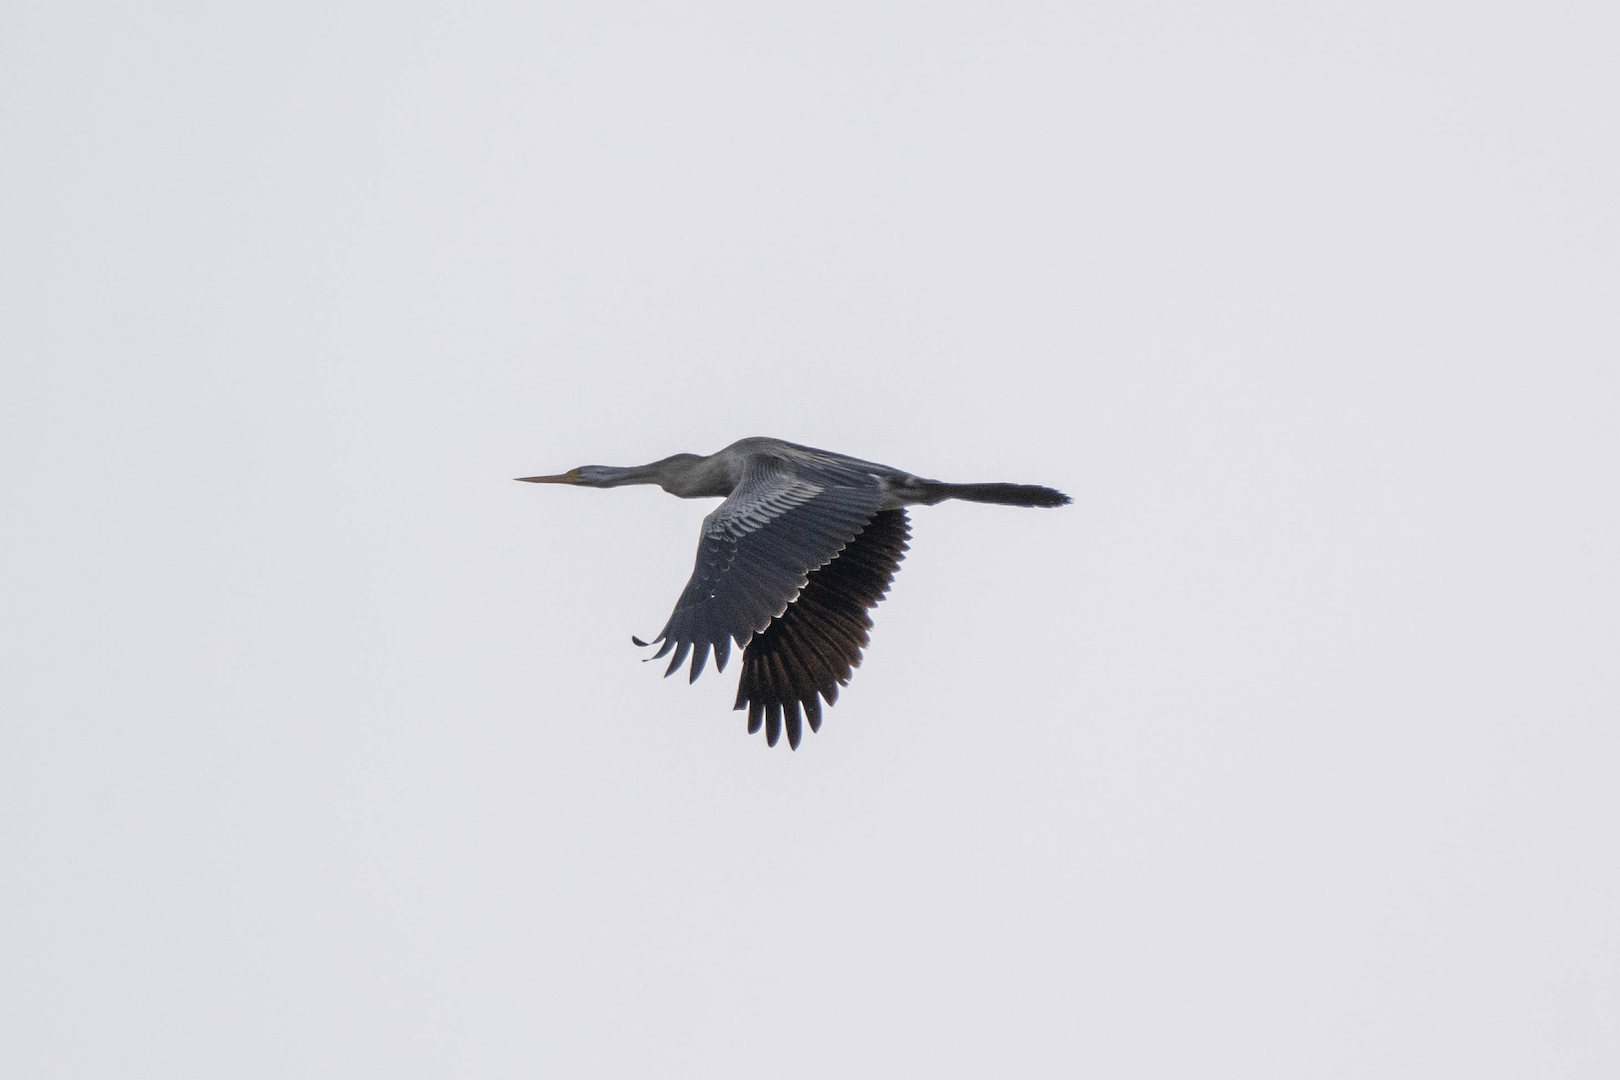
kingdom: Animalia
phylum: Chordata
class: Aves
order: Suliformes
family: Anhingidae
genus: Anhinga
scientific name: Anhinga novaehollandiae
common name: Australasian darter
